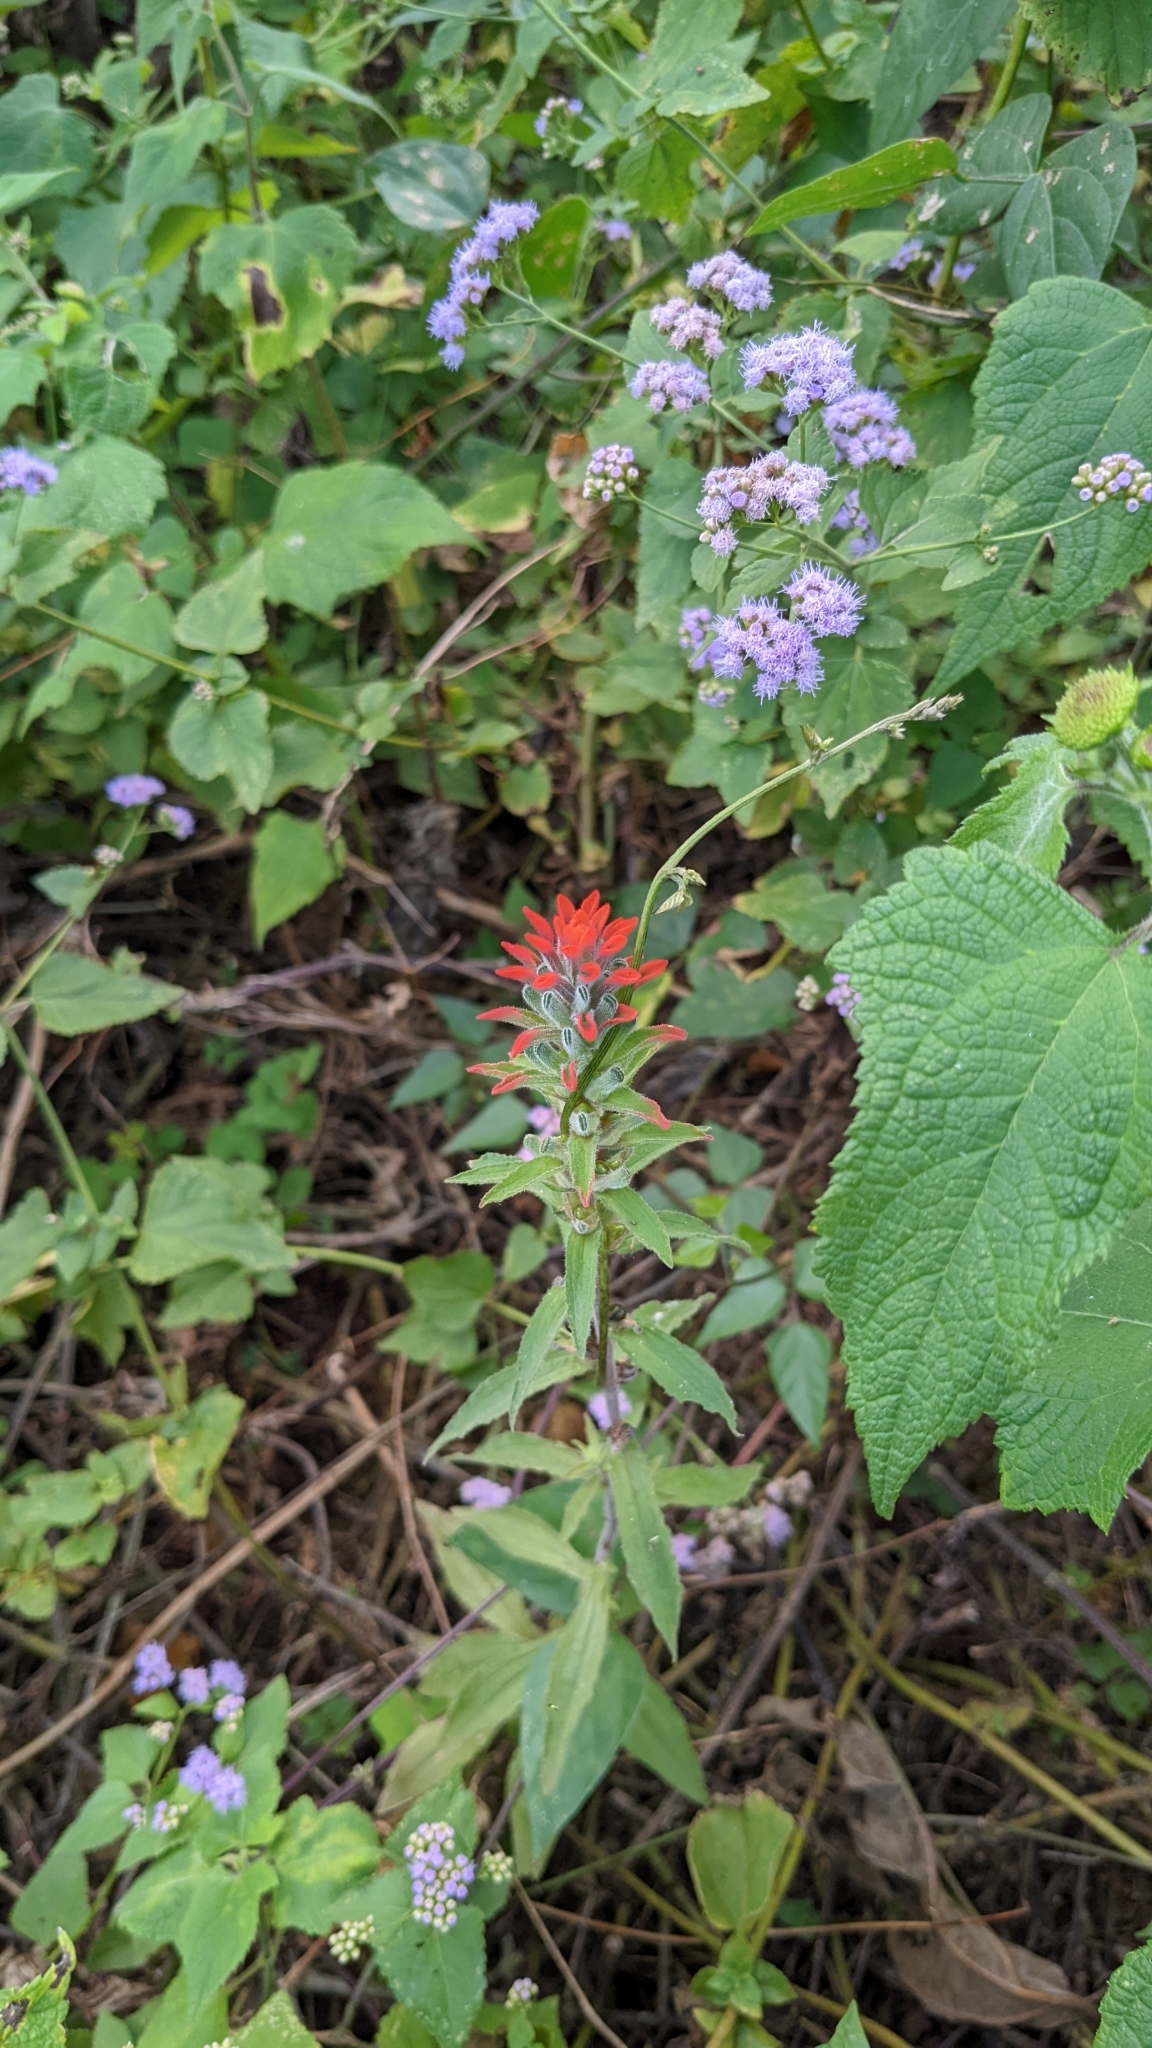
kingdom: Plantae
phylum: Tracheophyta
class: Magnoliopsida
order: Lamiales
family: Orobanchaceae
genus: Castilleja
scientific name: Castilleja arvensis
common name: Indian paintbrush
